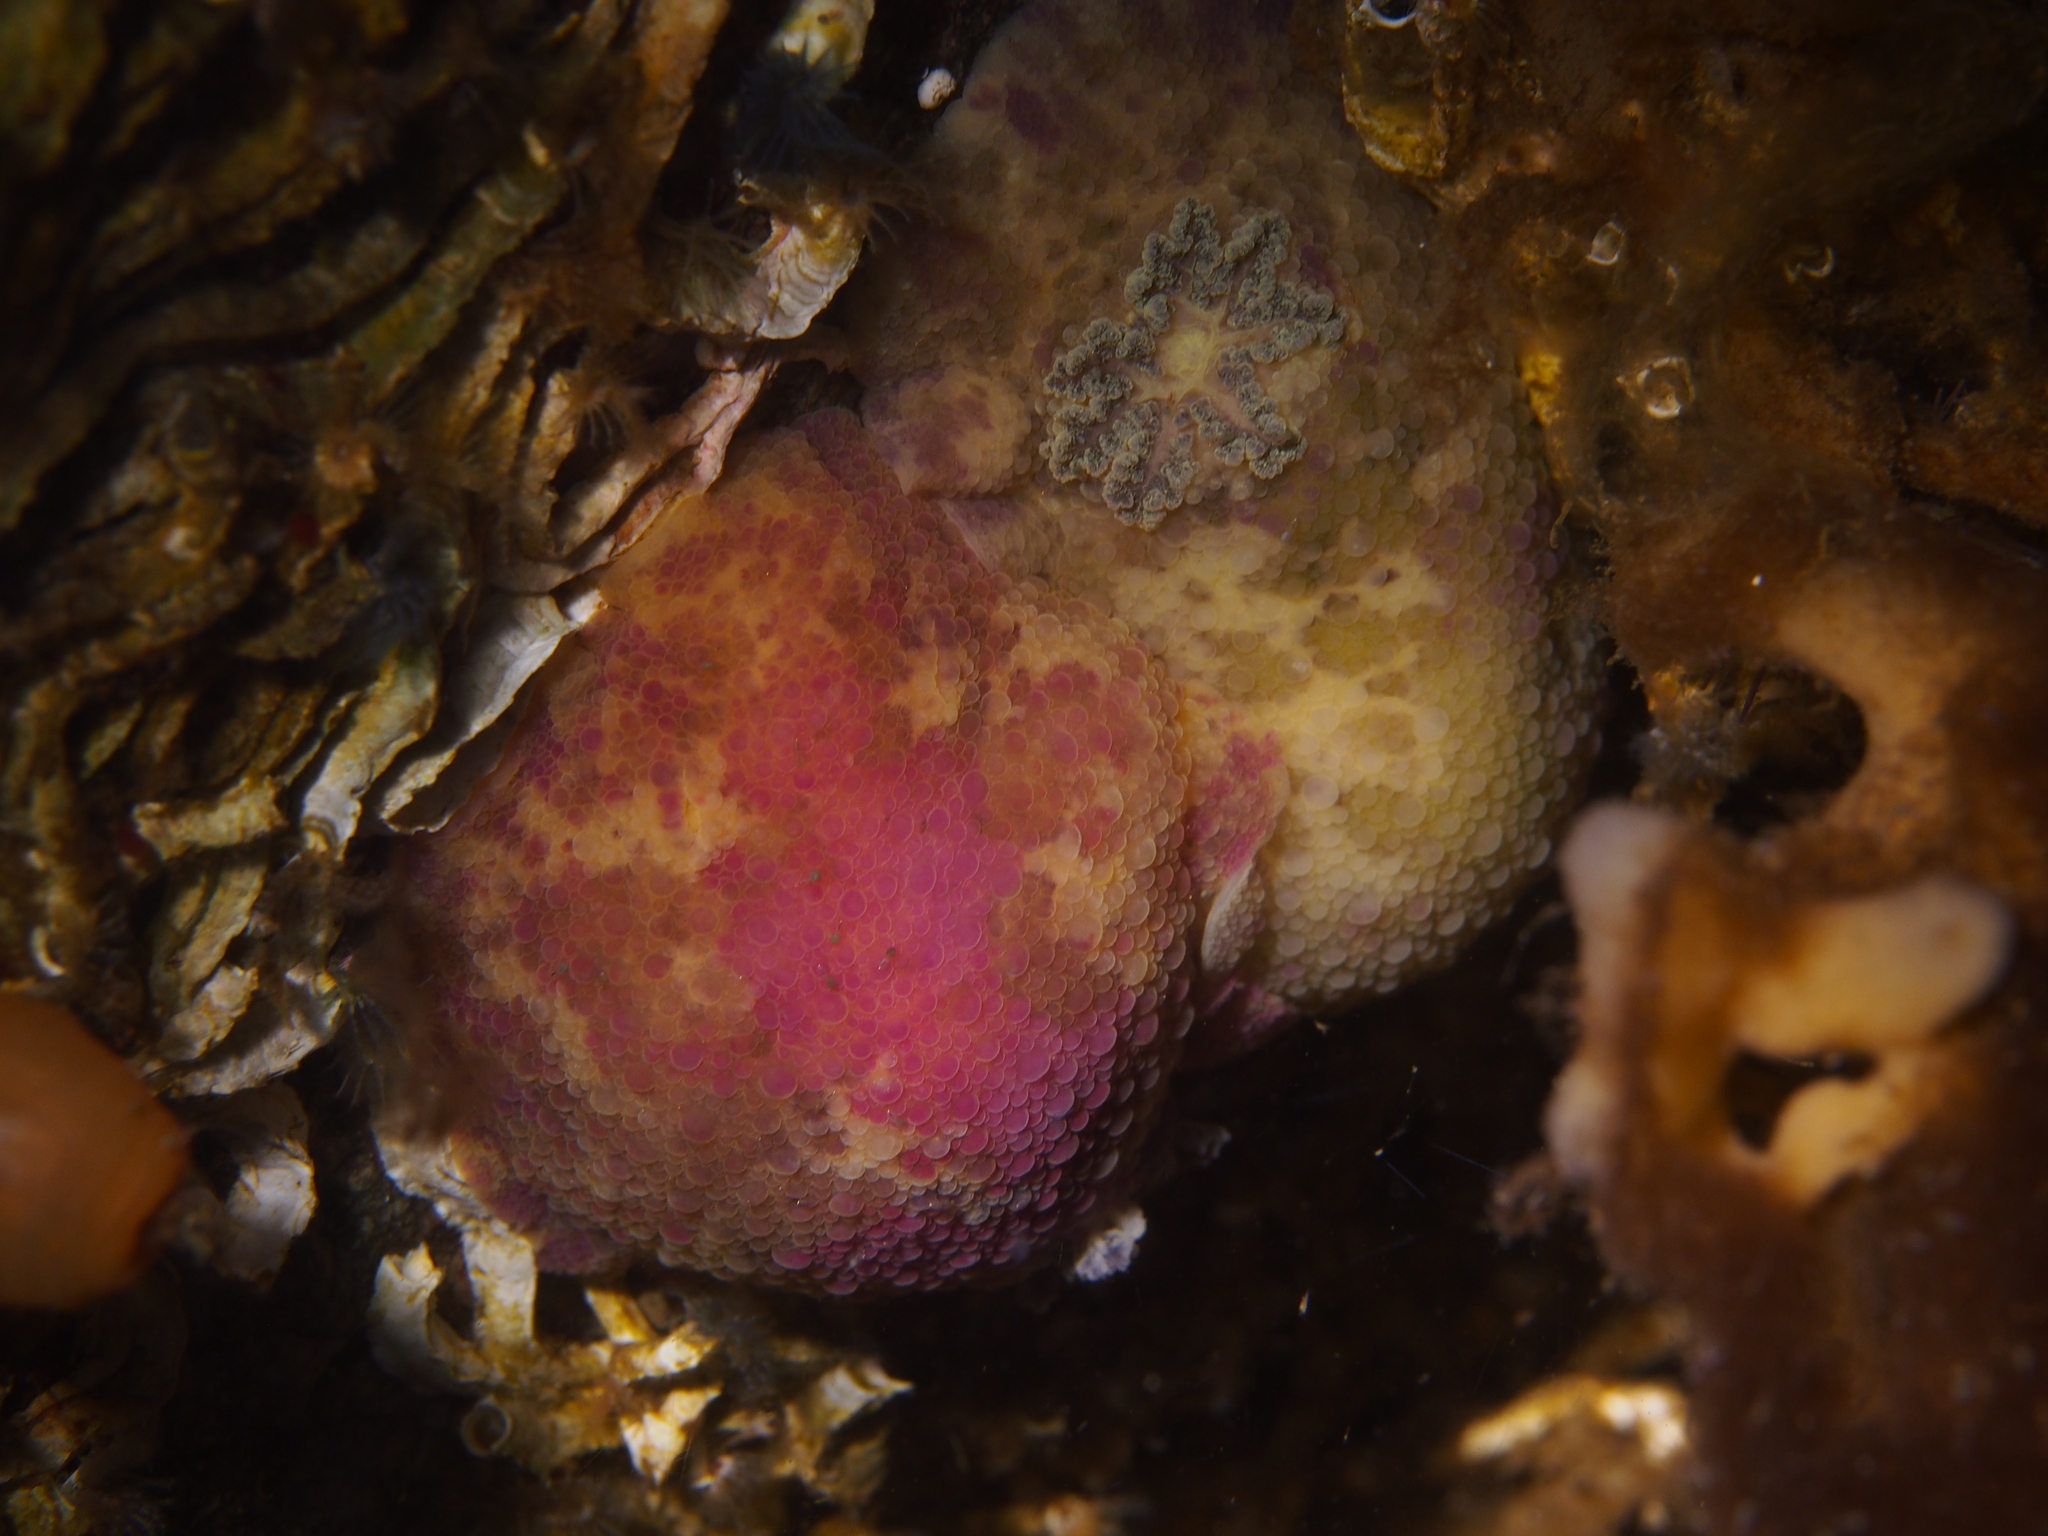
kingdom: Animalia
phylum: Mollusca
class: Gastropoda
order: Nudibranchia
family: Dorididae
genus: Doris
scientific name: Doris pseudoargus
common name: Sea lemon
